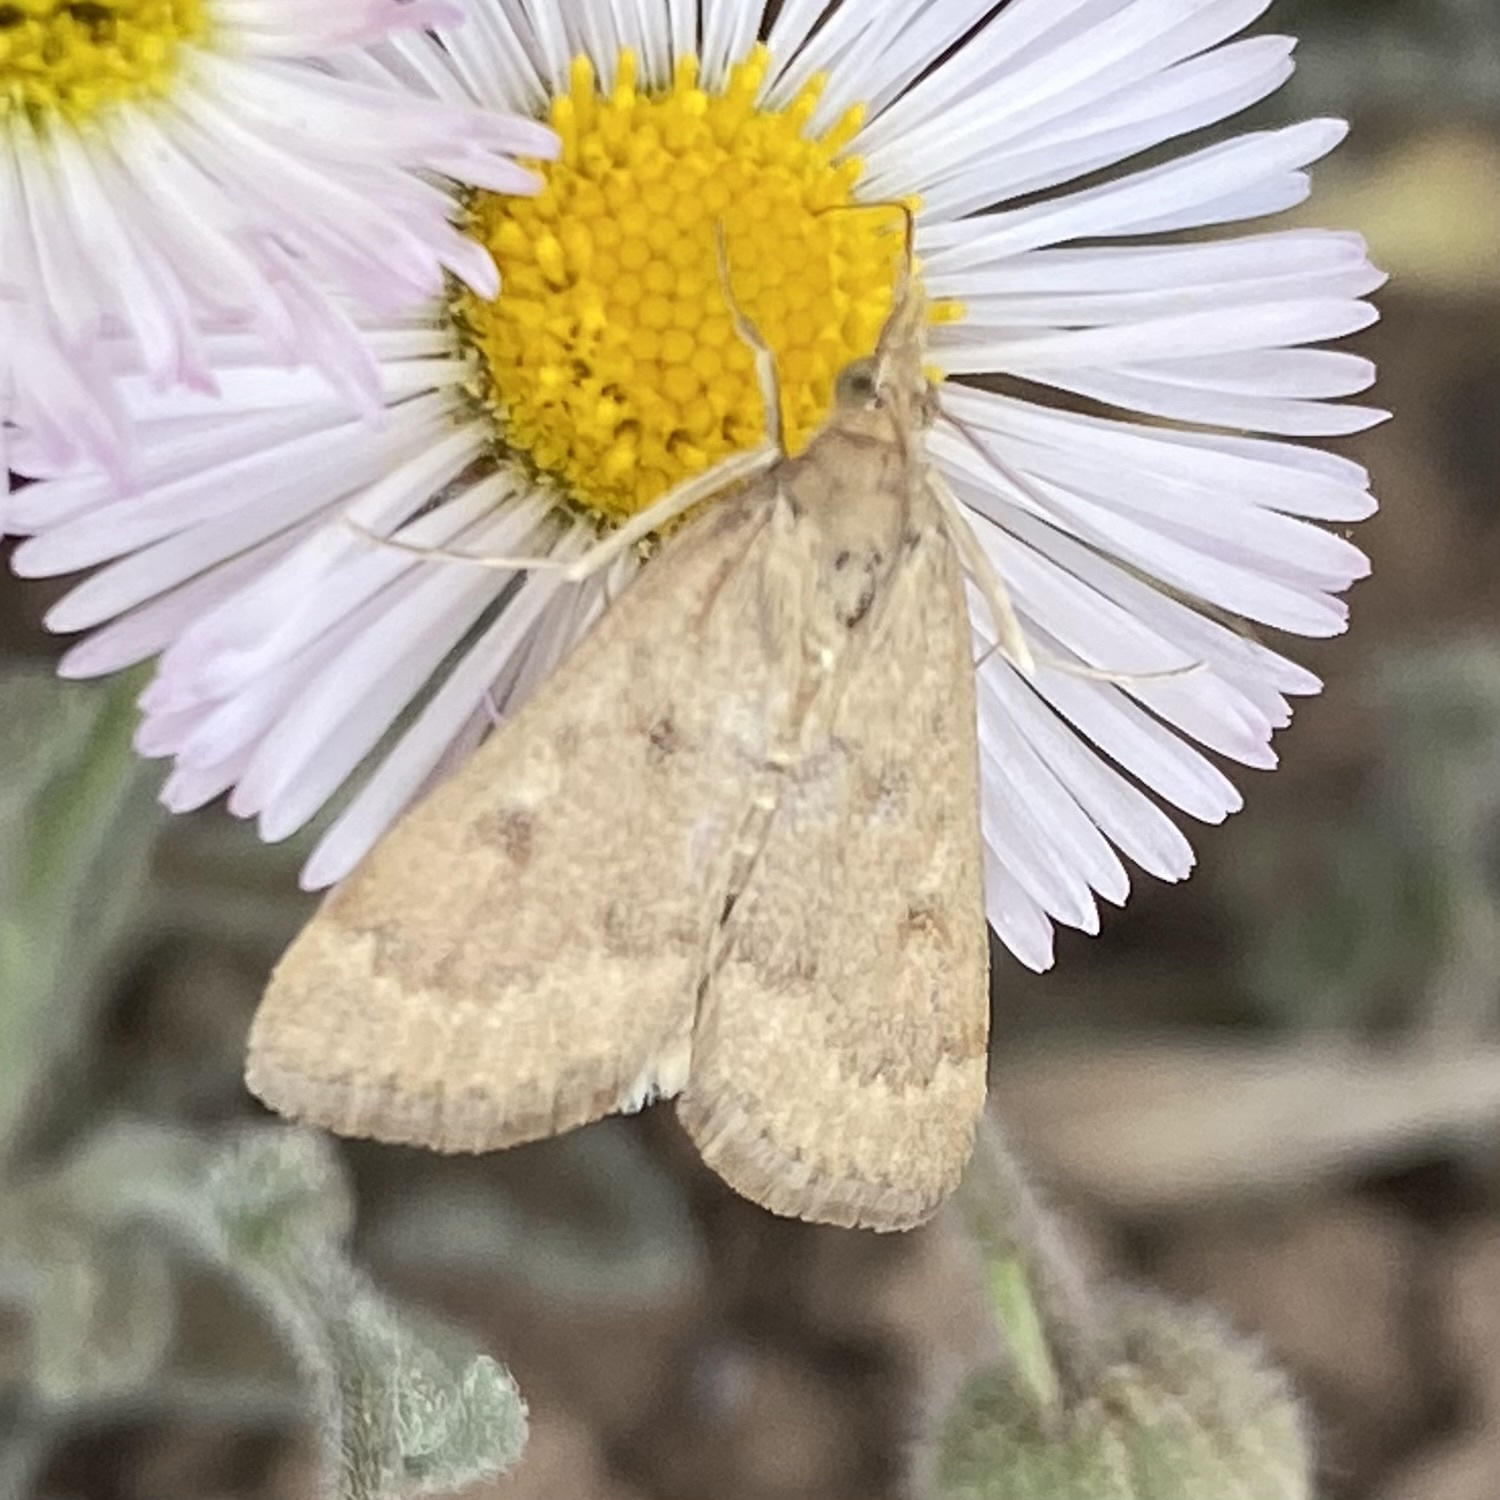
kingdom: Animalia
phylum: Arthropoda
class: Insecta
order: Lepidoptera
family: Crambidae
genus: Achyra
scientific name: Achyra rantalis
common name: Garden webworm
